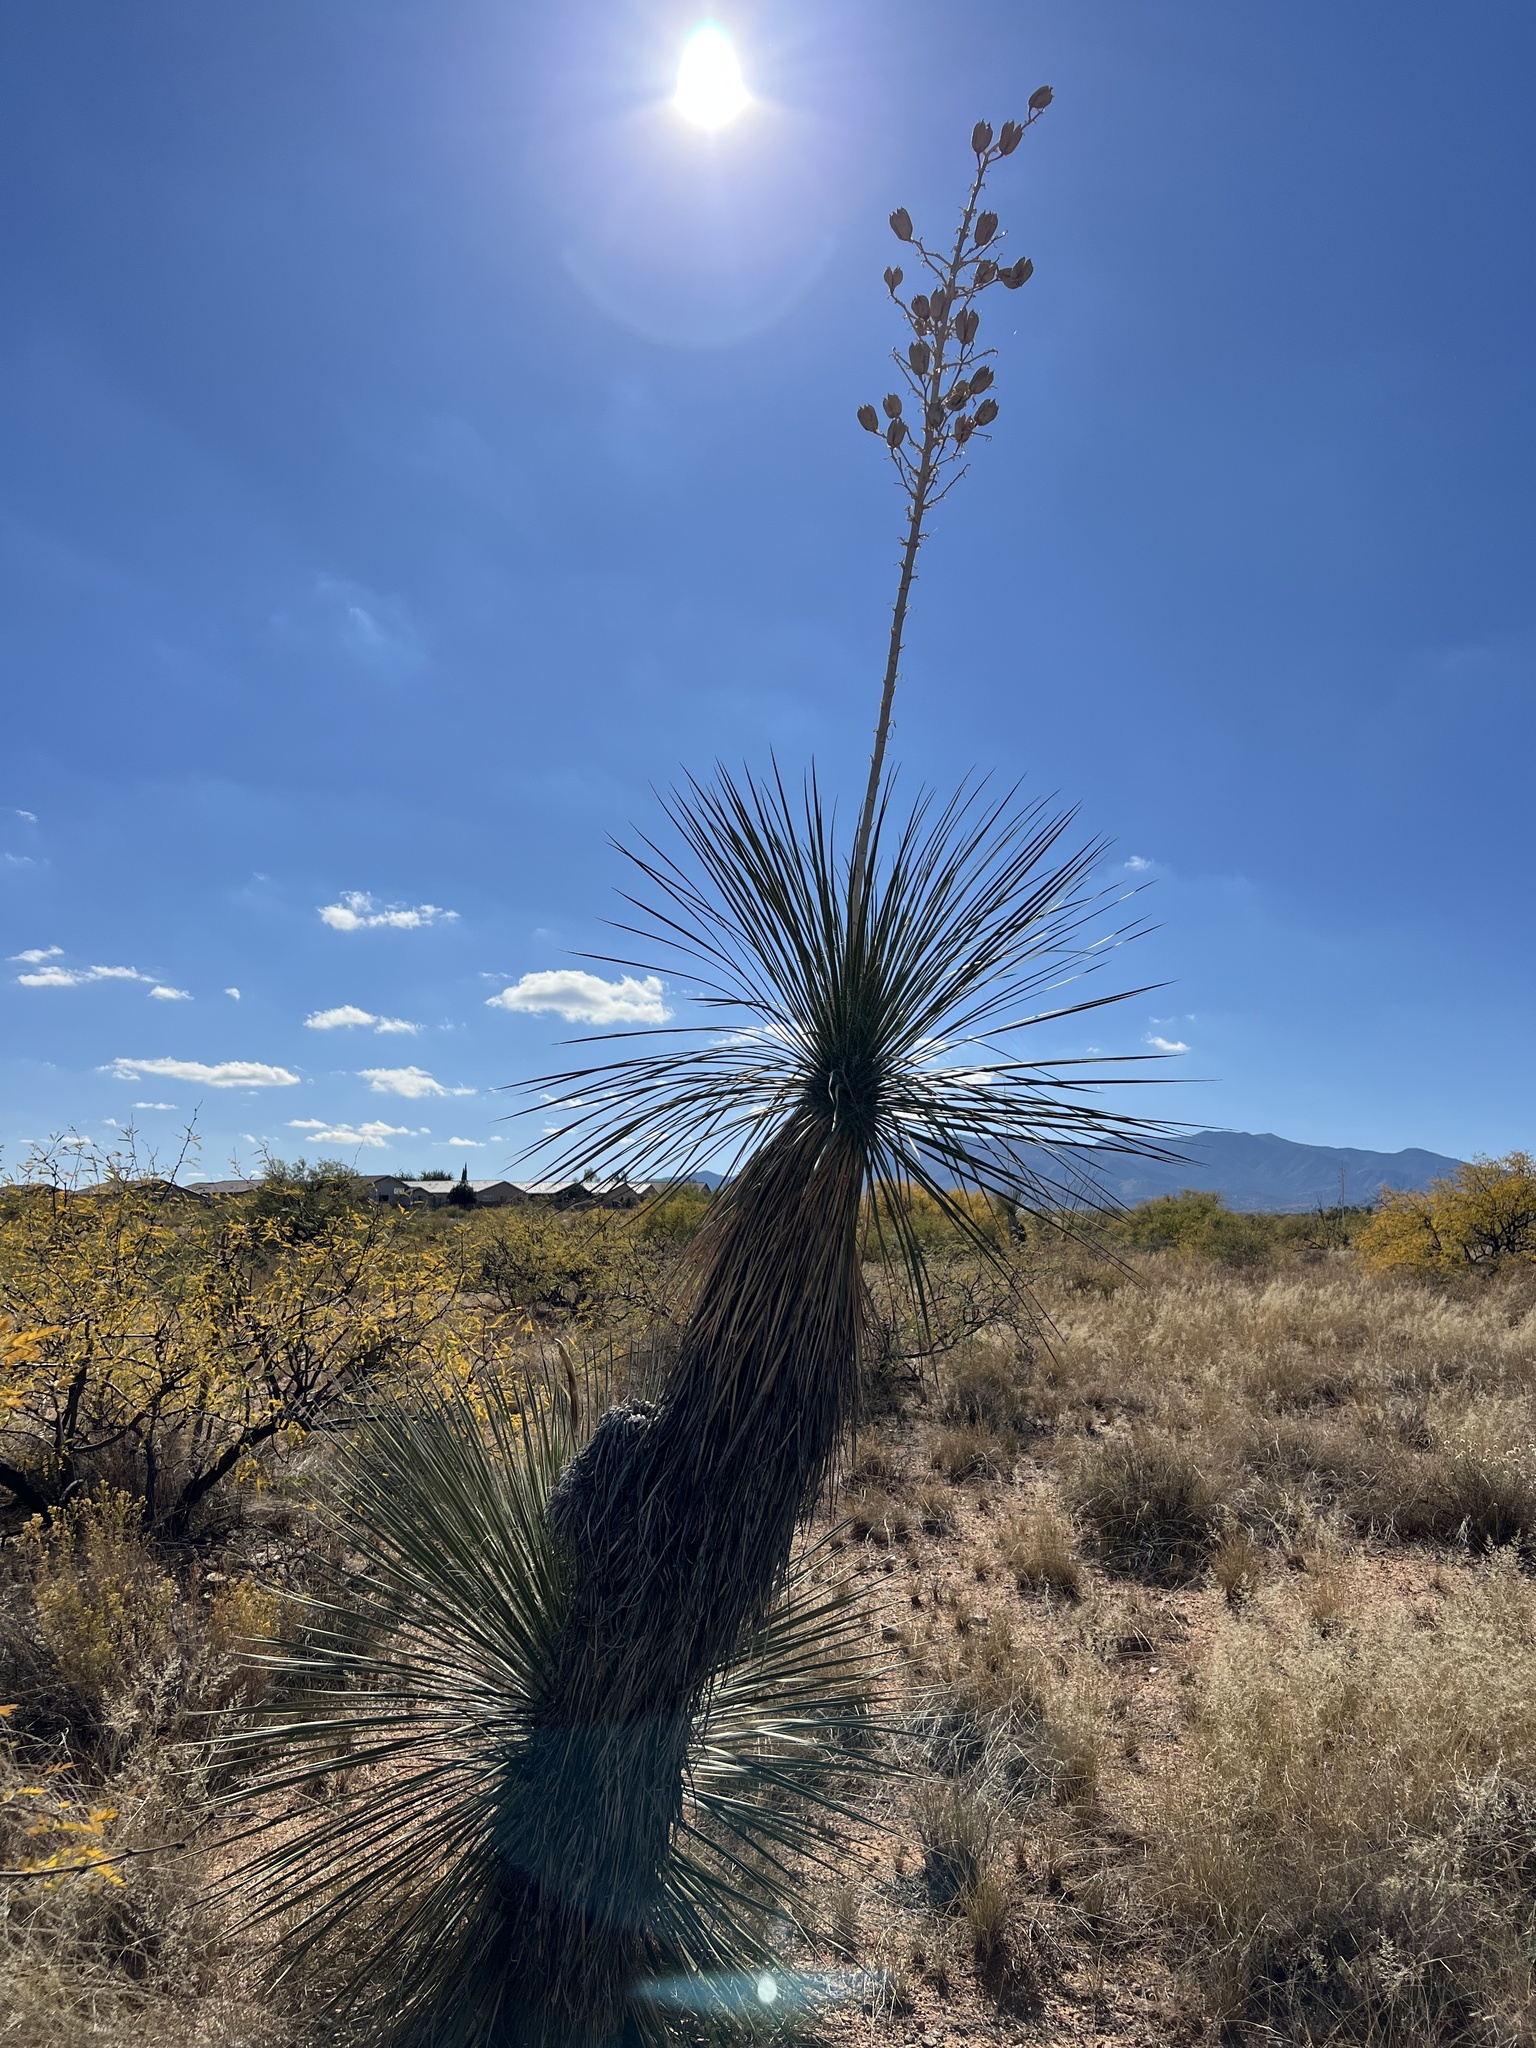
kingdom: Plantae
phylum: Tracheophyta
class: Liliopsida
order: Asparagales
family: Asparagaceae
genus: Yucca
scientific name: Yucca elata
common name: Palmella
